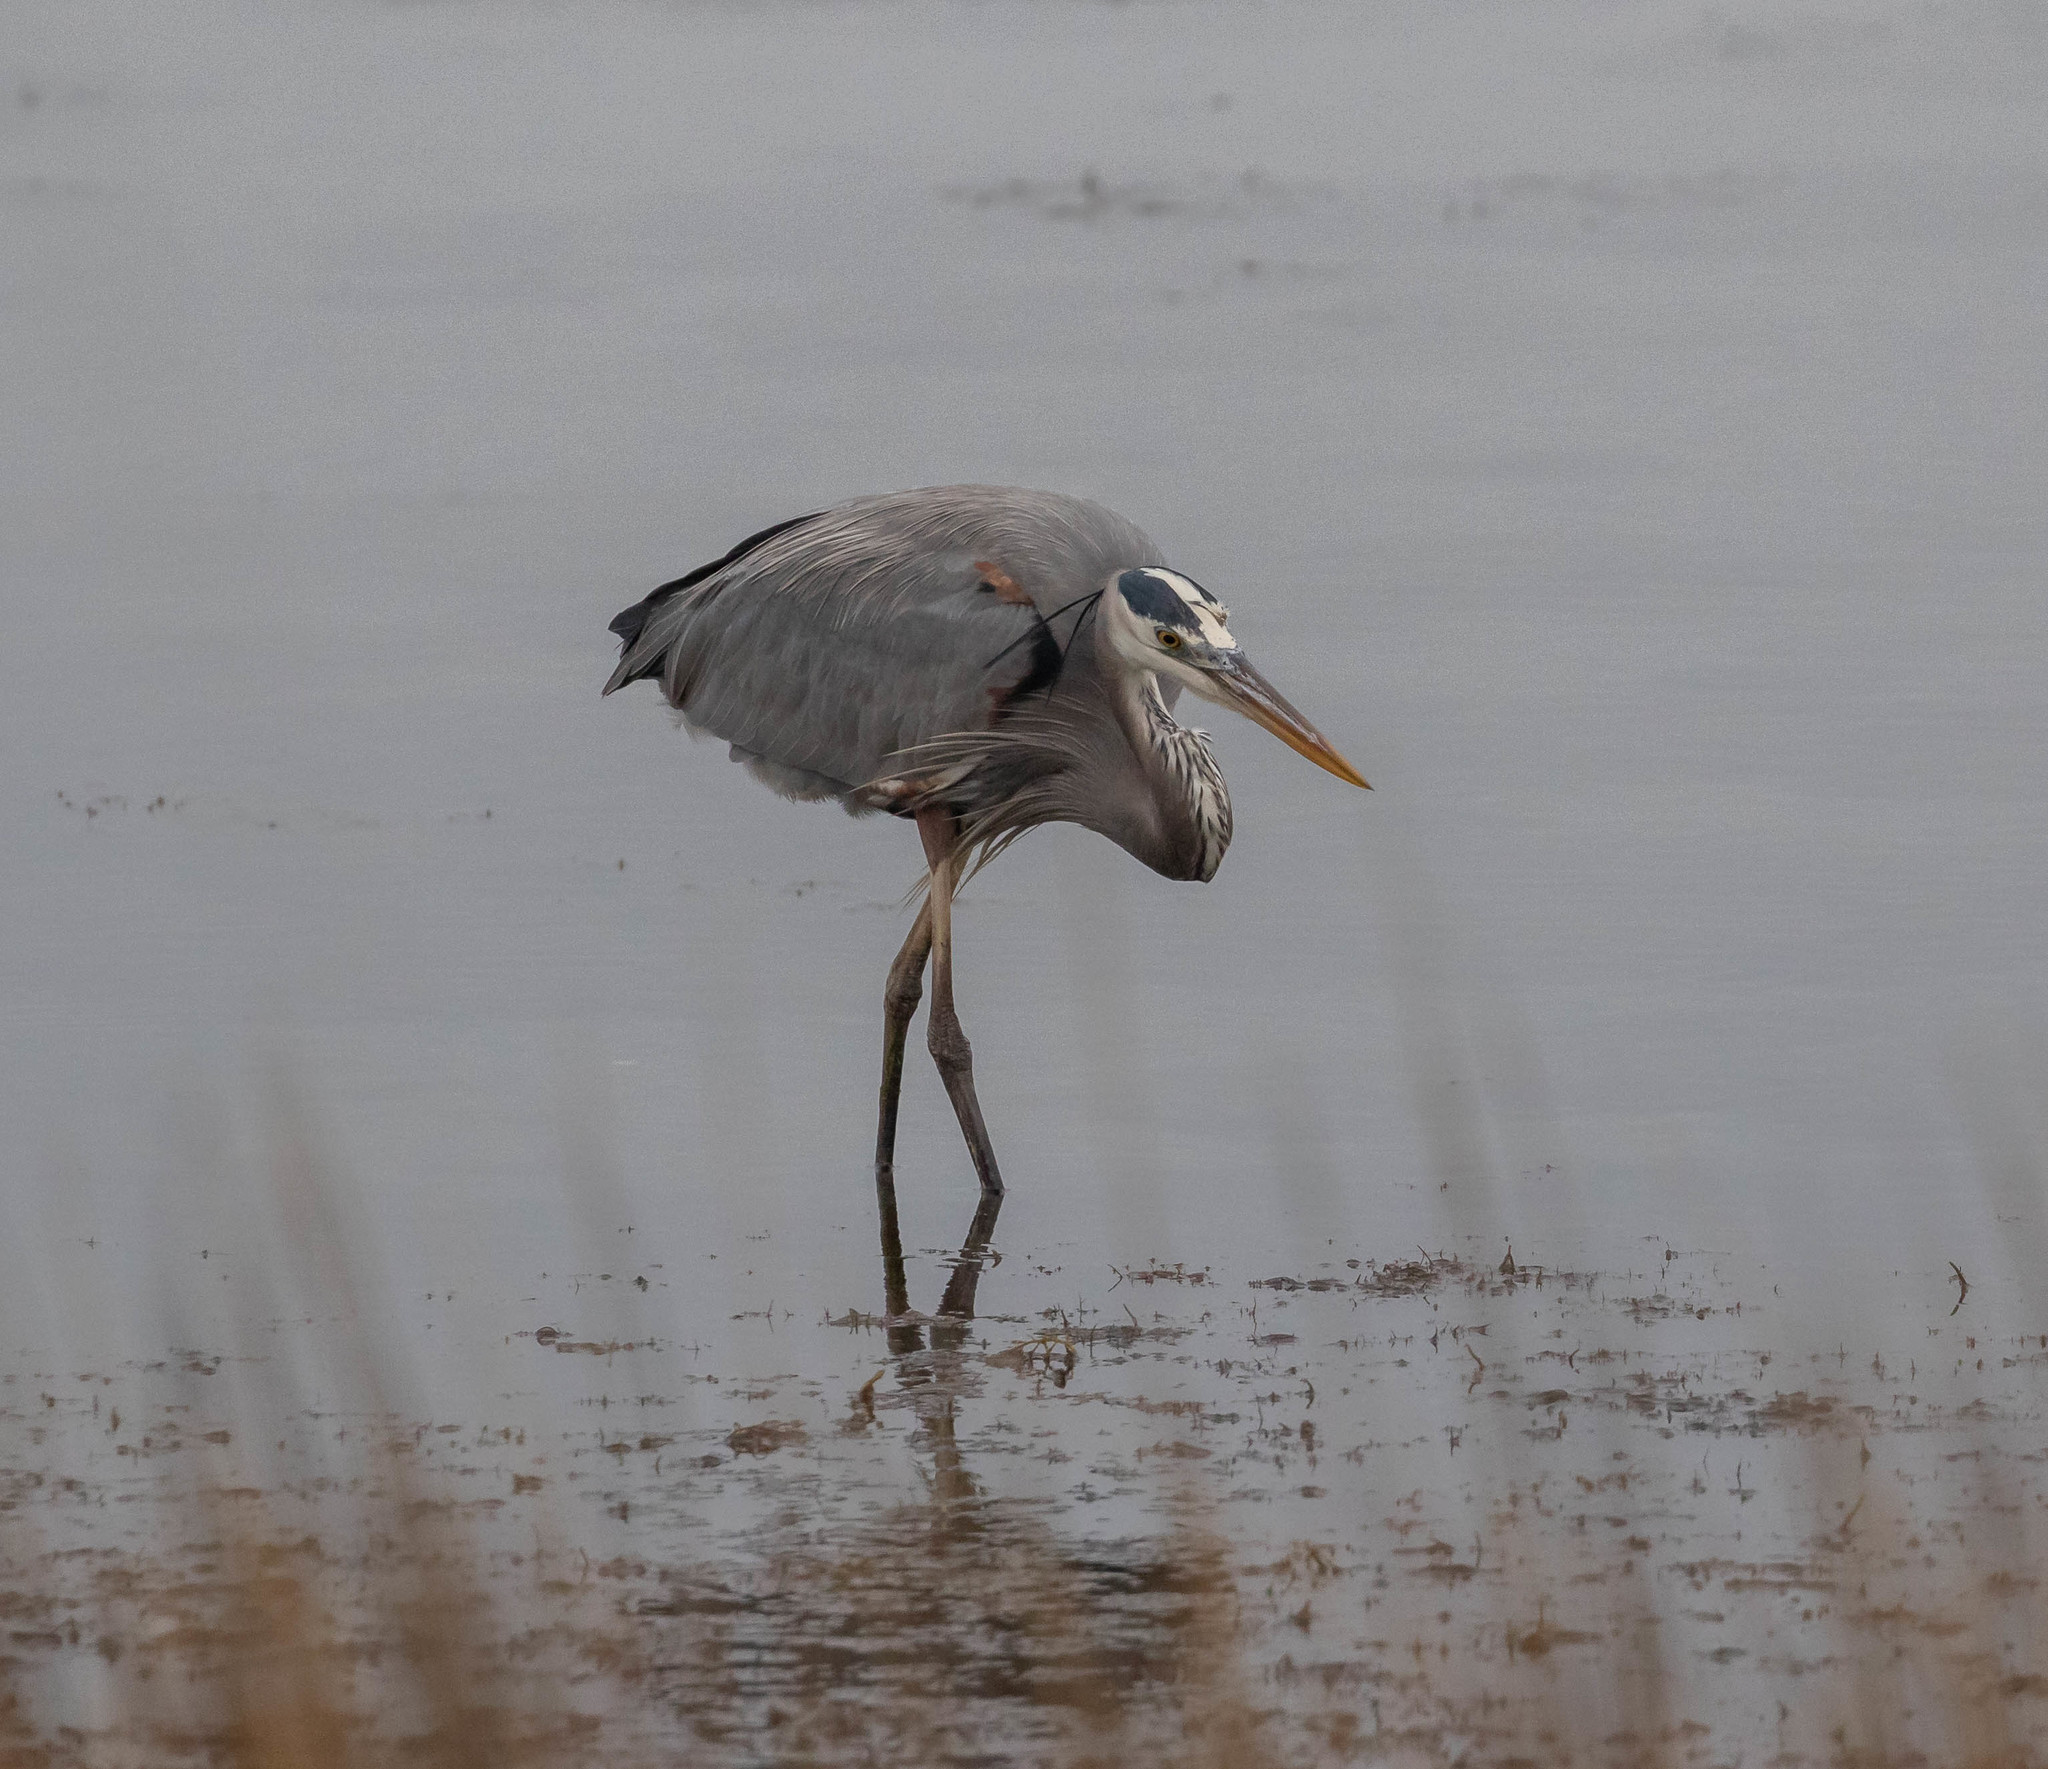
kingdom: Animalia
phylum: Chordata
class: Aves
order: Pelecaniformes
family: Ardeidae
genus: Ardea
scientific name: Ardea herodias
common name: Great blue heron
